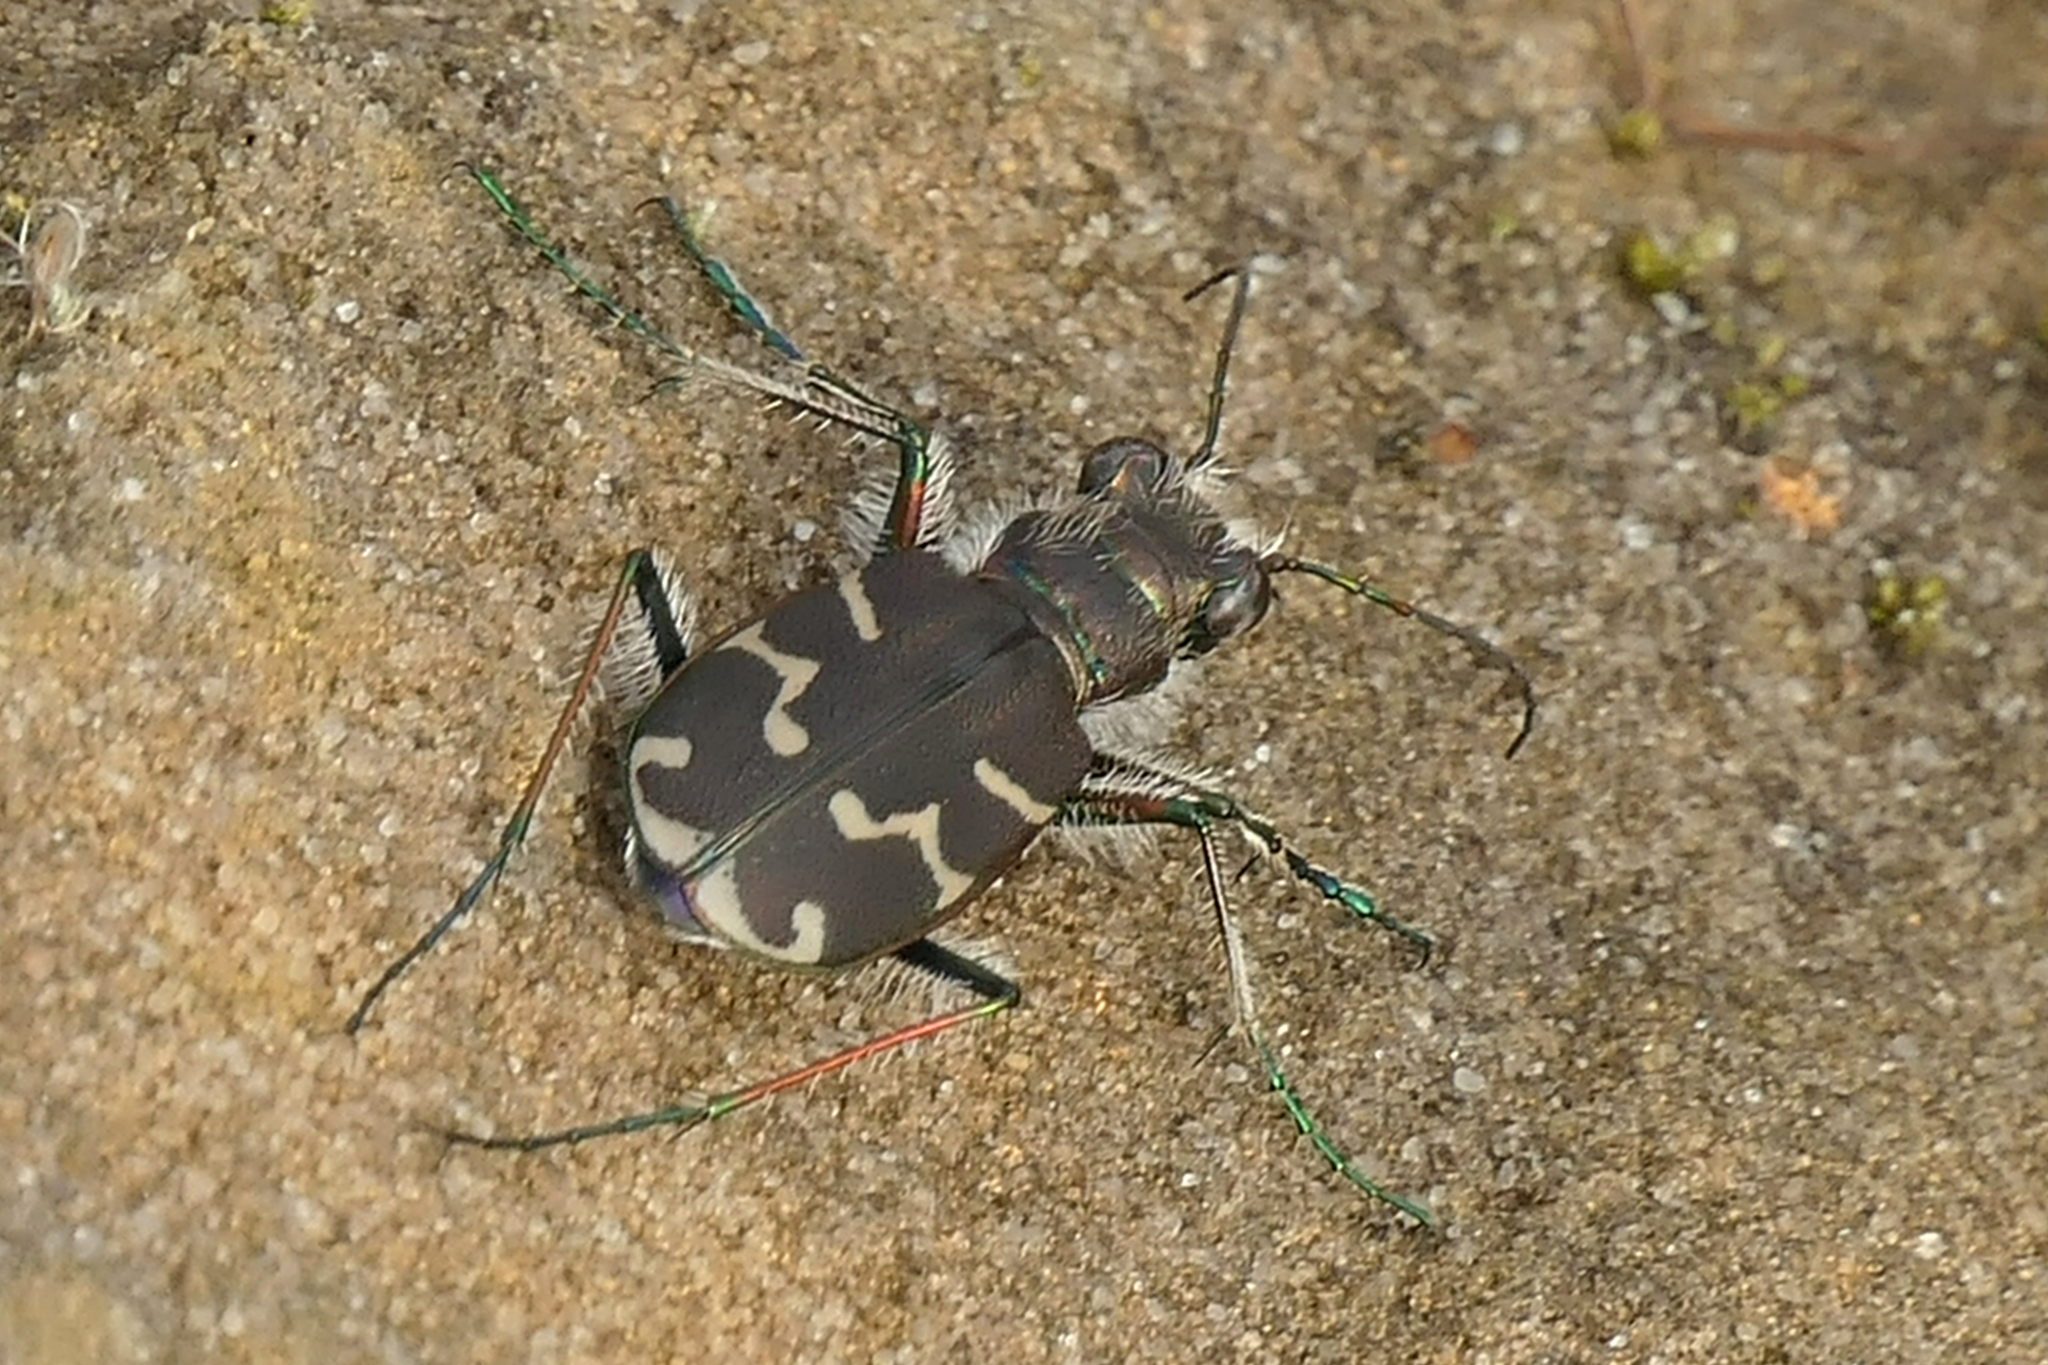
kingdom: Animalia
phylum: Arthropoda
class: Insecta
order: Coleoptera
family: Carabidae
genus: Cicindela
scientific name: Cicindela tranquebarica
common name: Oblique-lined tiger beetle
